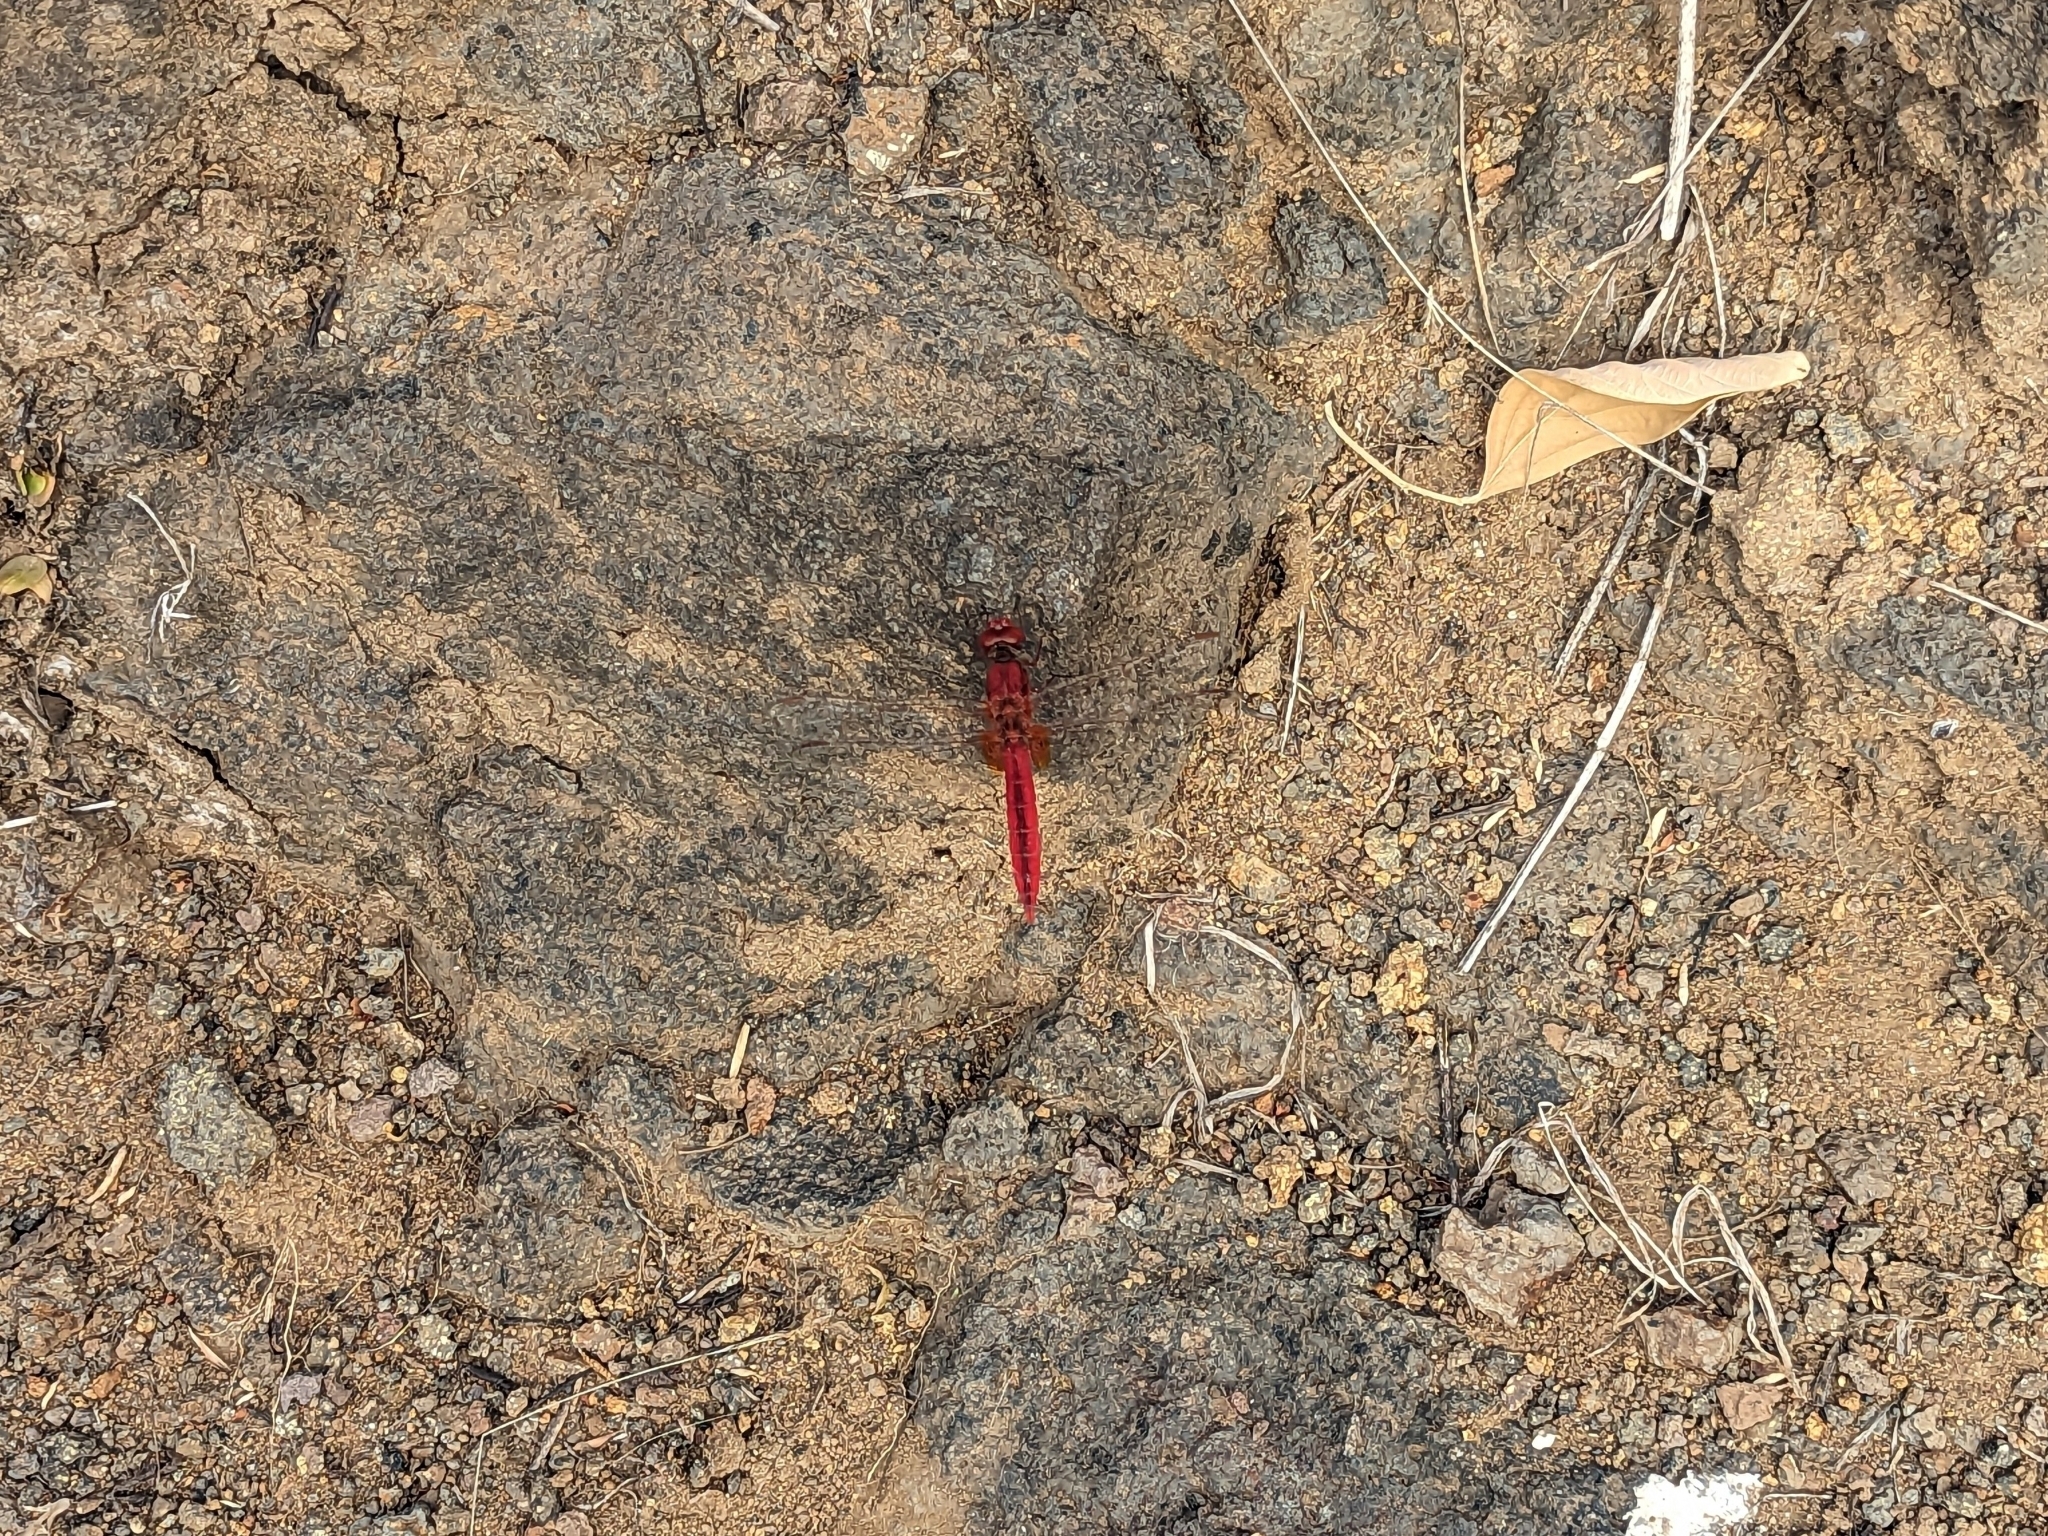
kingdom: Animalia
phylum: Arthropoda
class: Insecta
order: Odonata
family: Libellulidae
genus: Crocothemis
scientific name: Crocothemis erythraea
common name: Scarlet dragonfly
